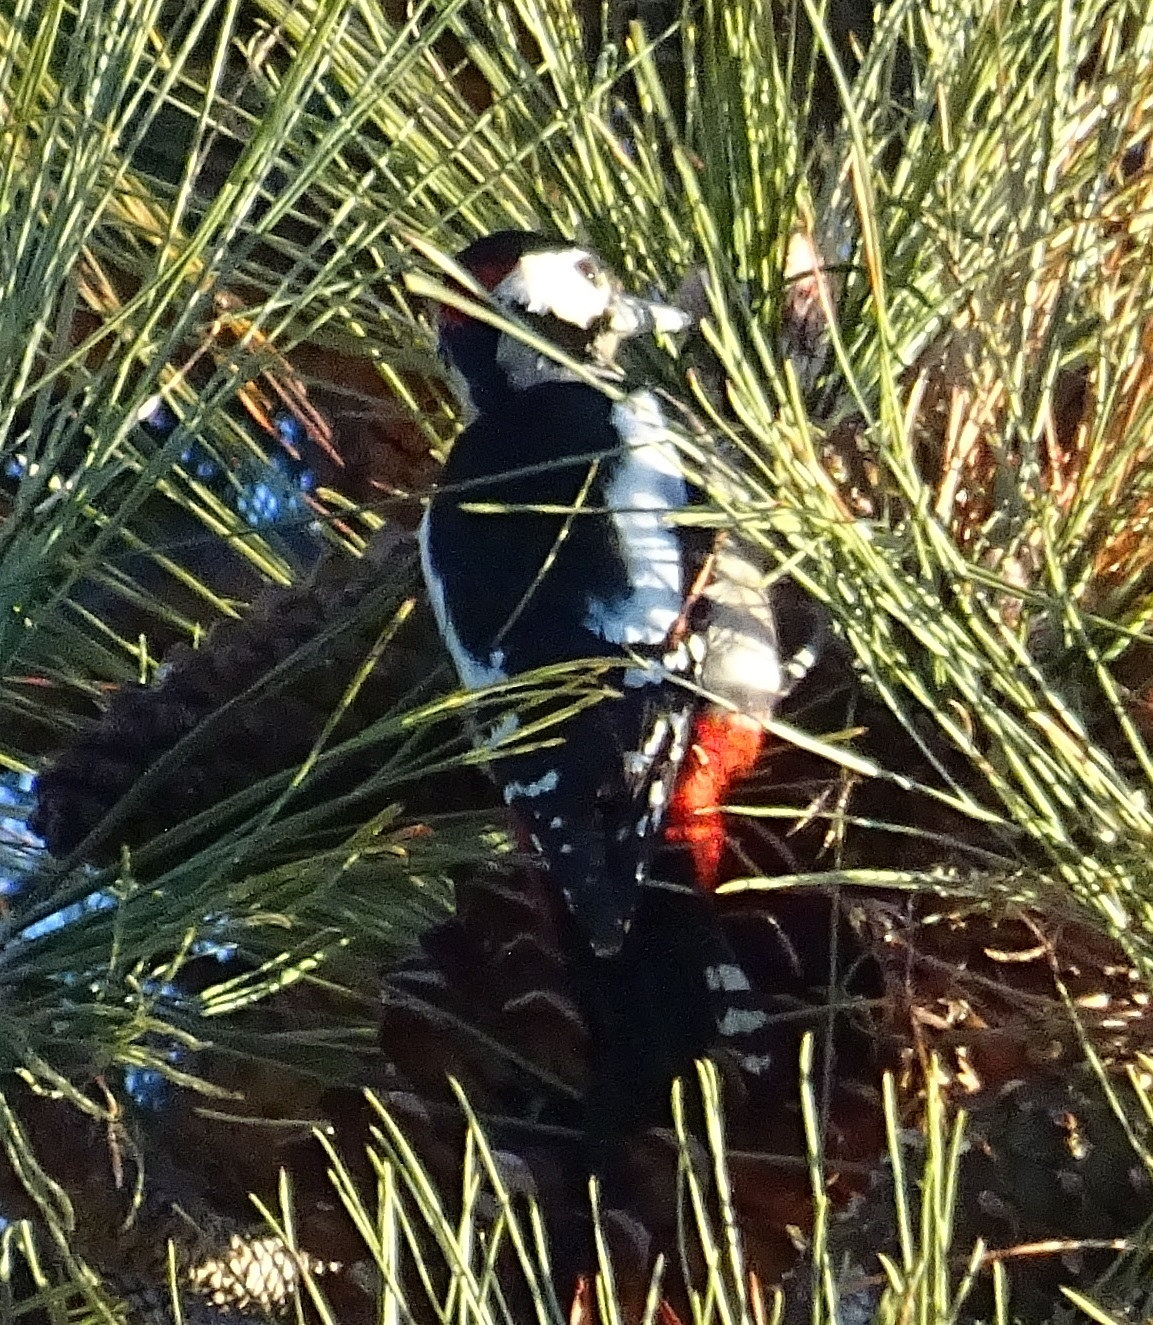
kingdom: Animalia
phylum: Chordata
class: Aves
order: Piciformes
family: Picidae
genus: Dendrocopos
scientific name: Dendrocopos major
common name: Great spotted woodpecker
